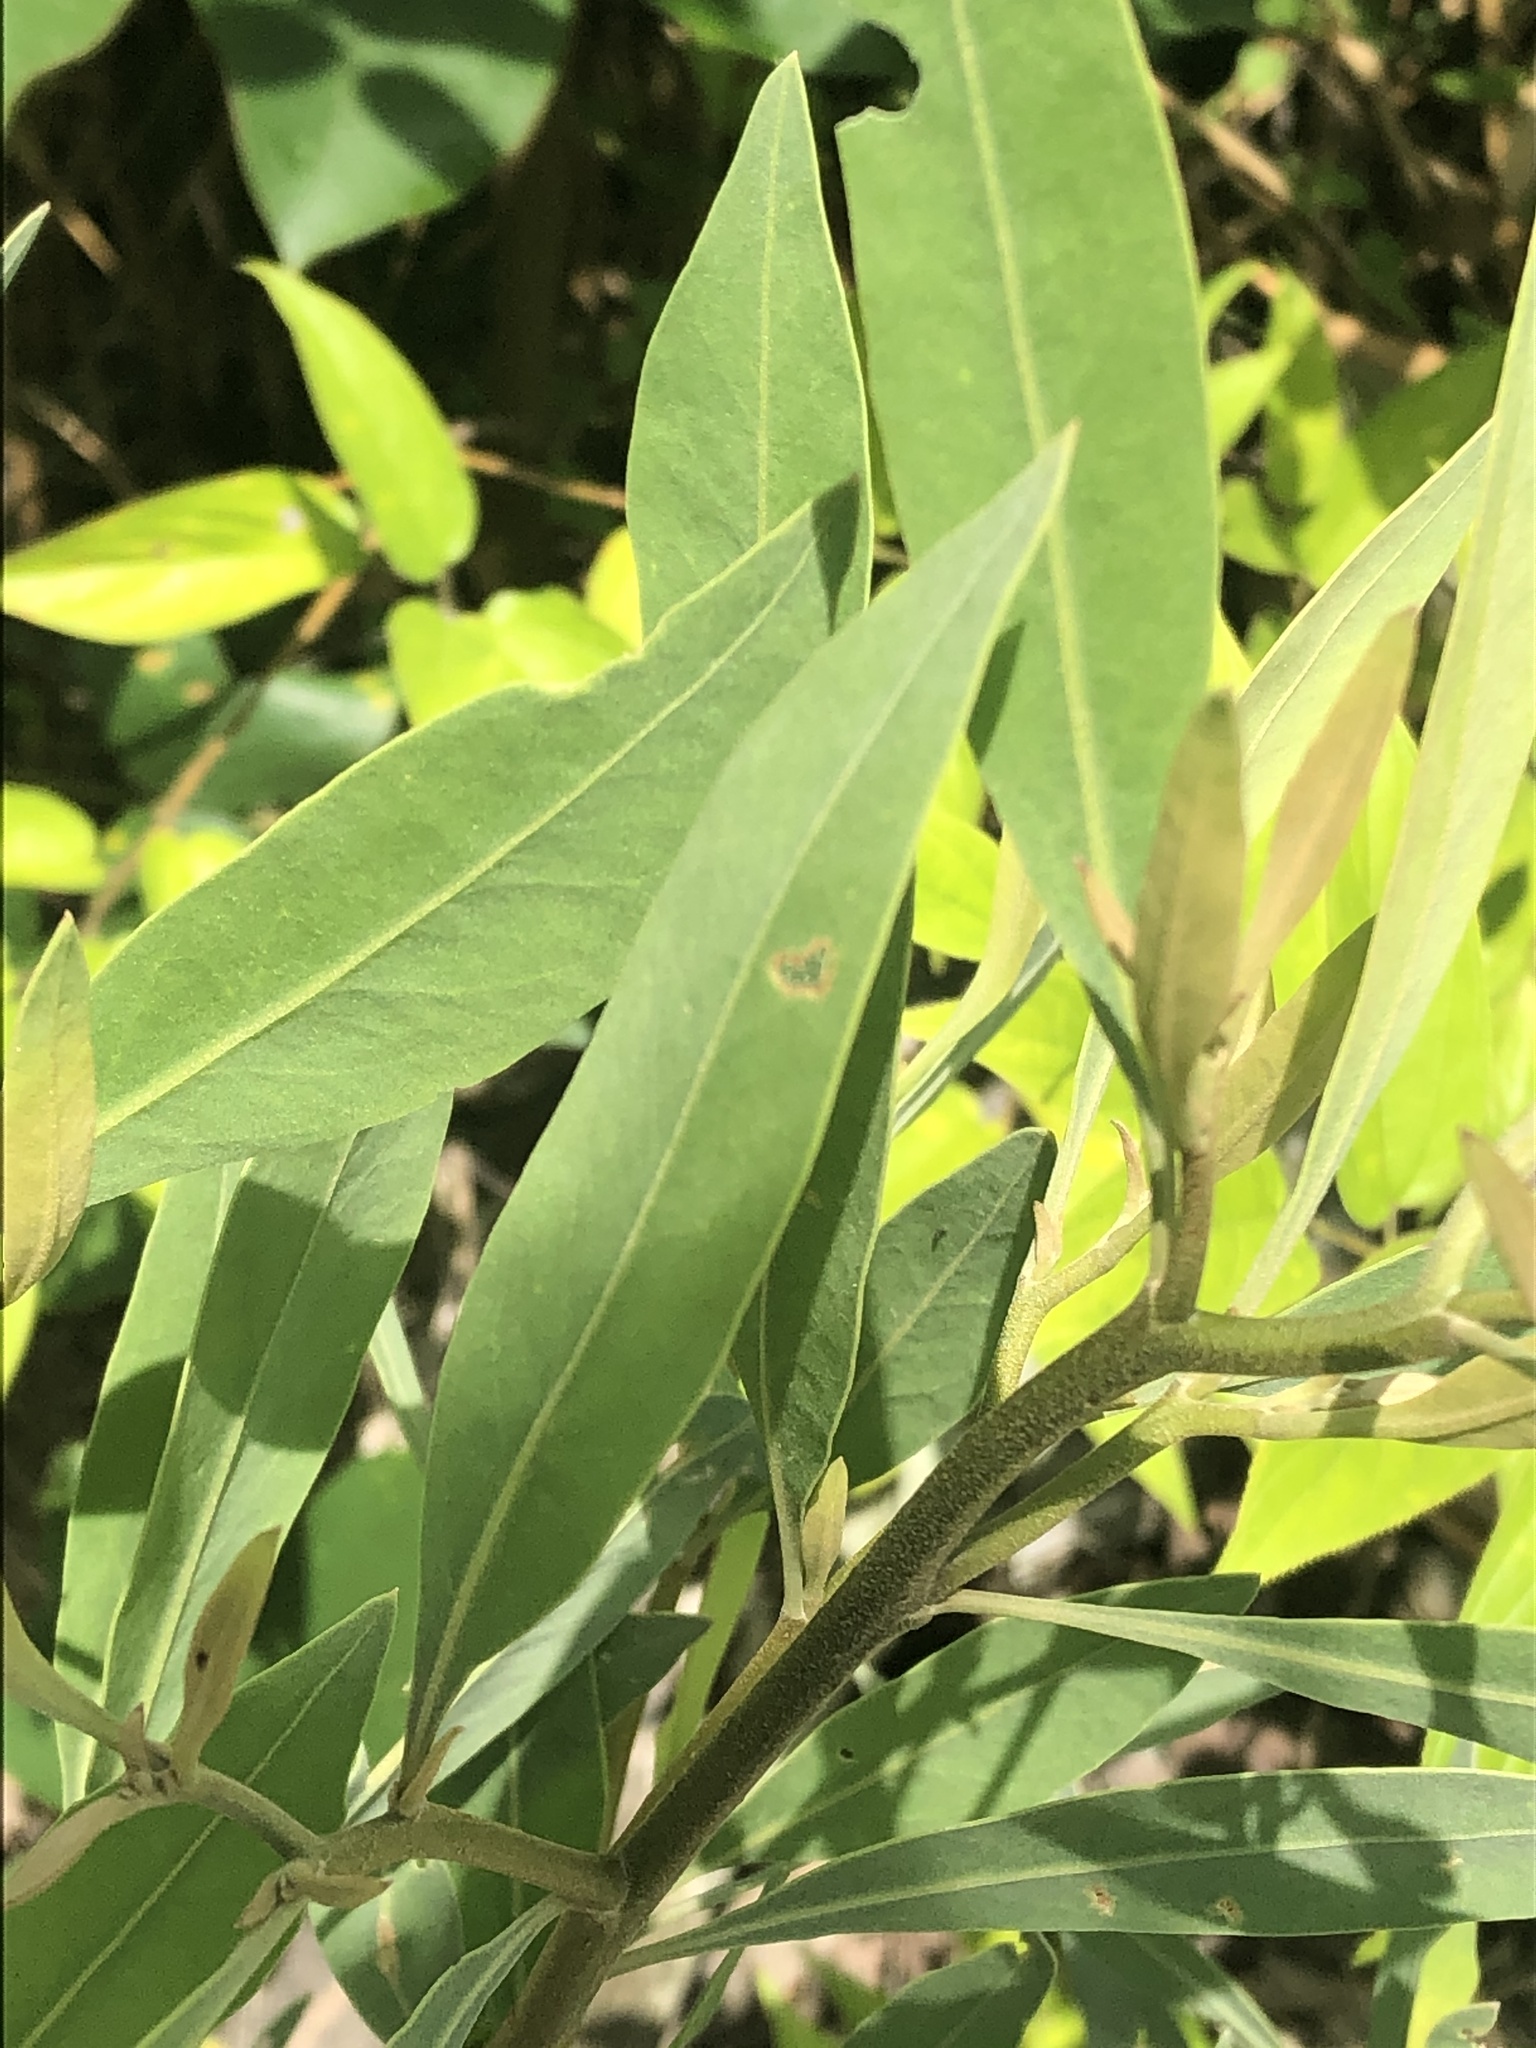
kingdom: Plantae
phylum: Tracheophyta
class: Magnoliopsida
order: Asterales
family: Asteraceae
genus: Tessaria
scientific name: Tessaria integrifolia
